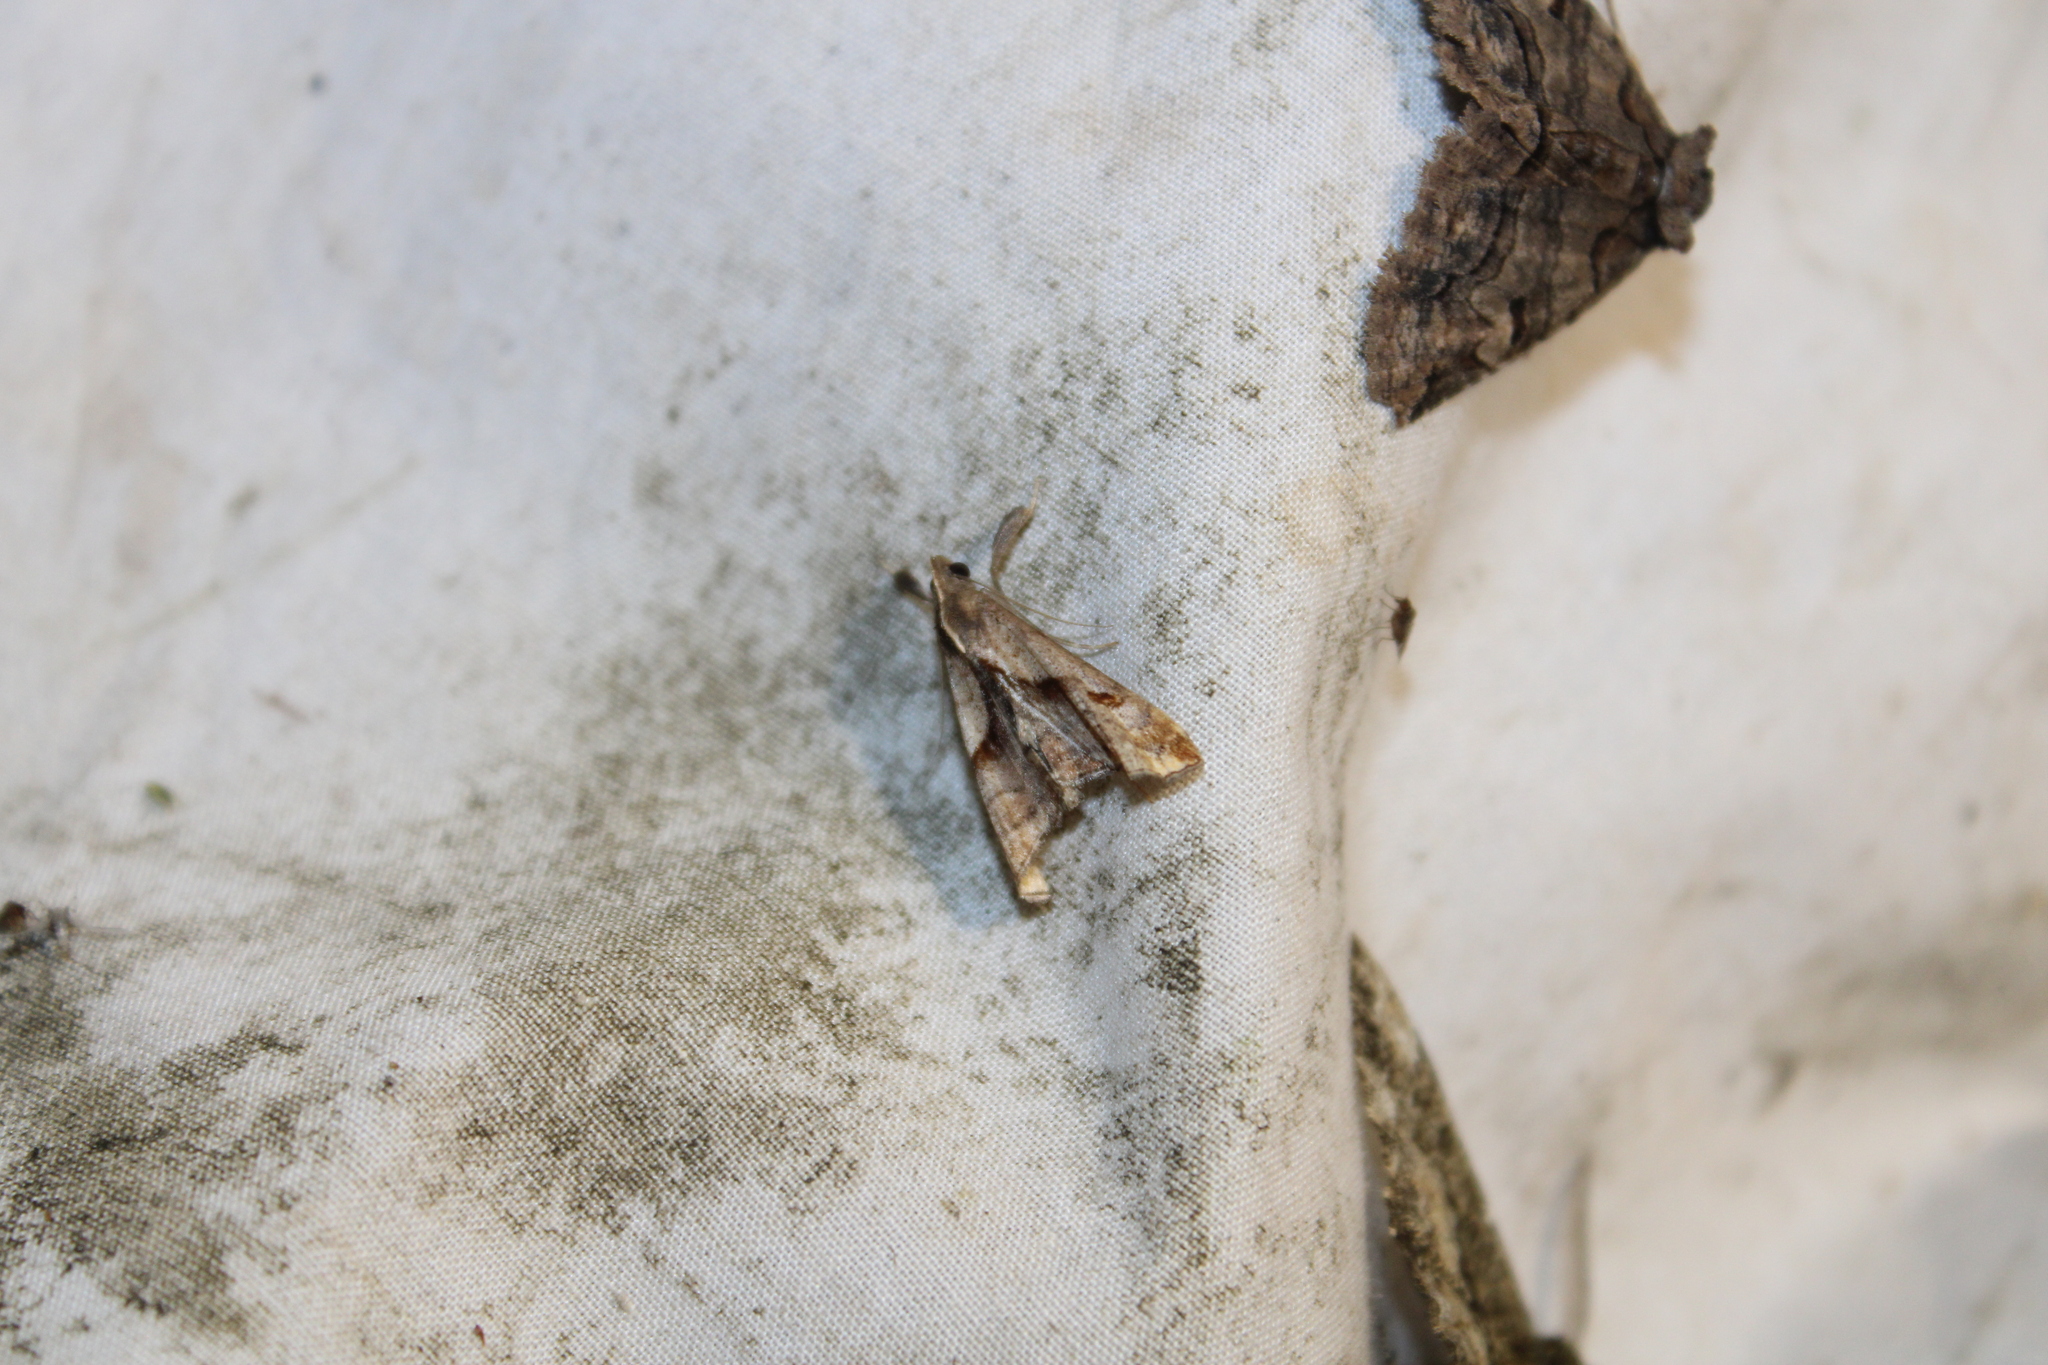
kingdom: Animalia
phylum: Arthropoda
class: Insecta
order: Lepidoptera
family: Erebidae
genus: Palthis
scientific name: Palthis angulalis
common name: Dark-spotted palthis moth
